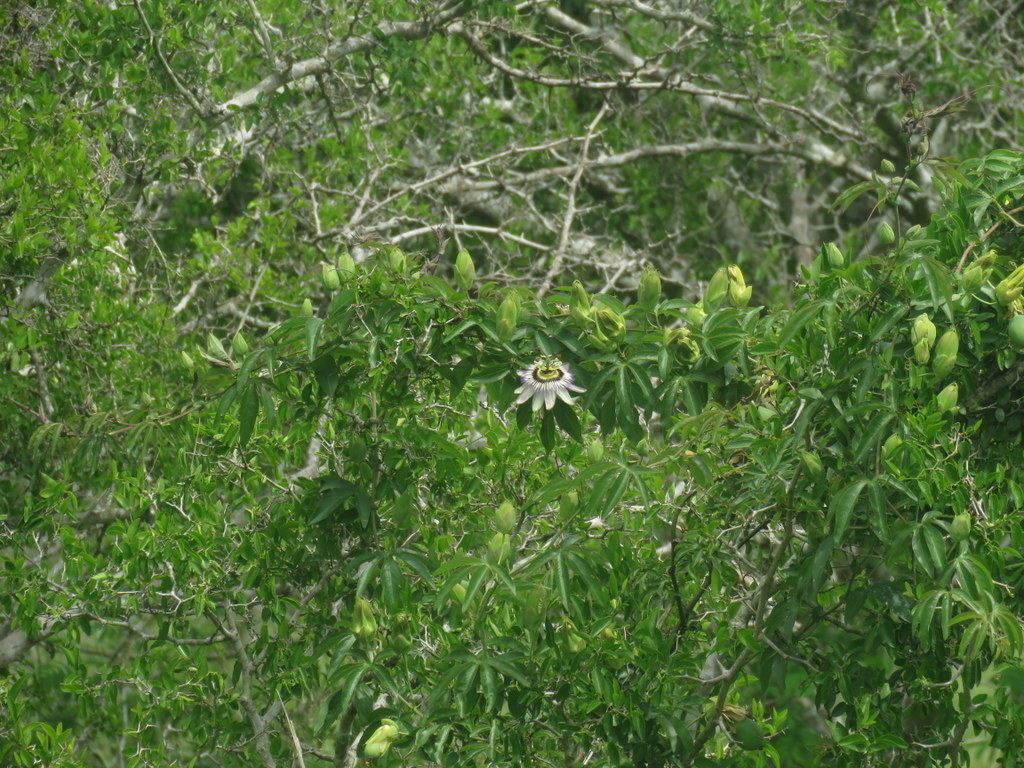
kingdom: Plantae
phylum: Tracheophyta
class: Magnoliopsida
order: Malpighiales
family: Passifloraceae
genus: Passiflora
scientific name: Passiflora caerulea
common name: Blue passionflower
